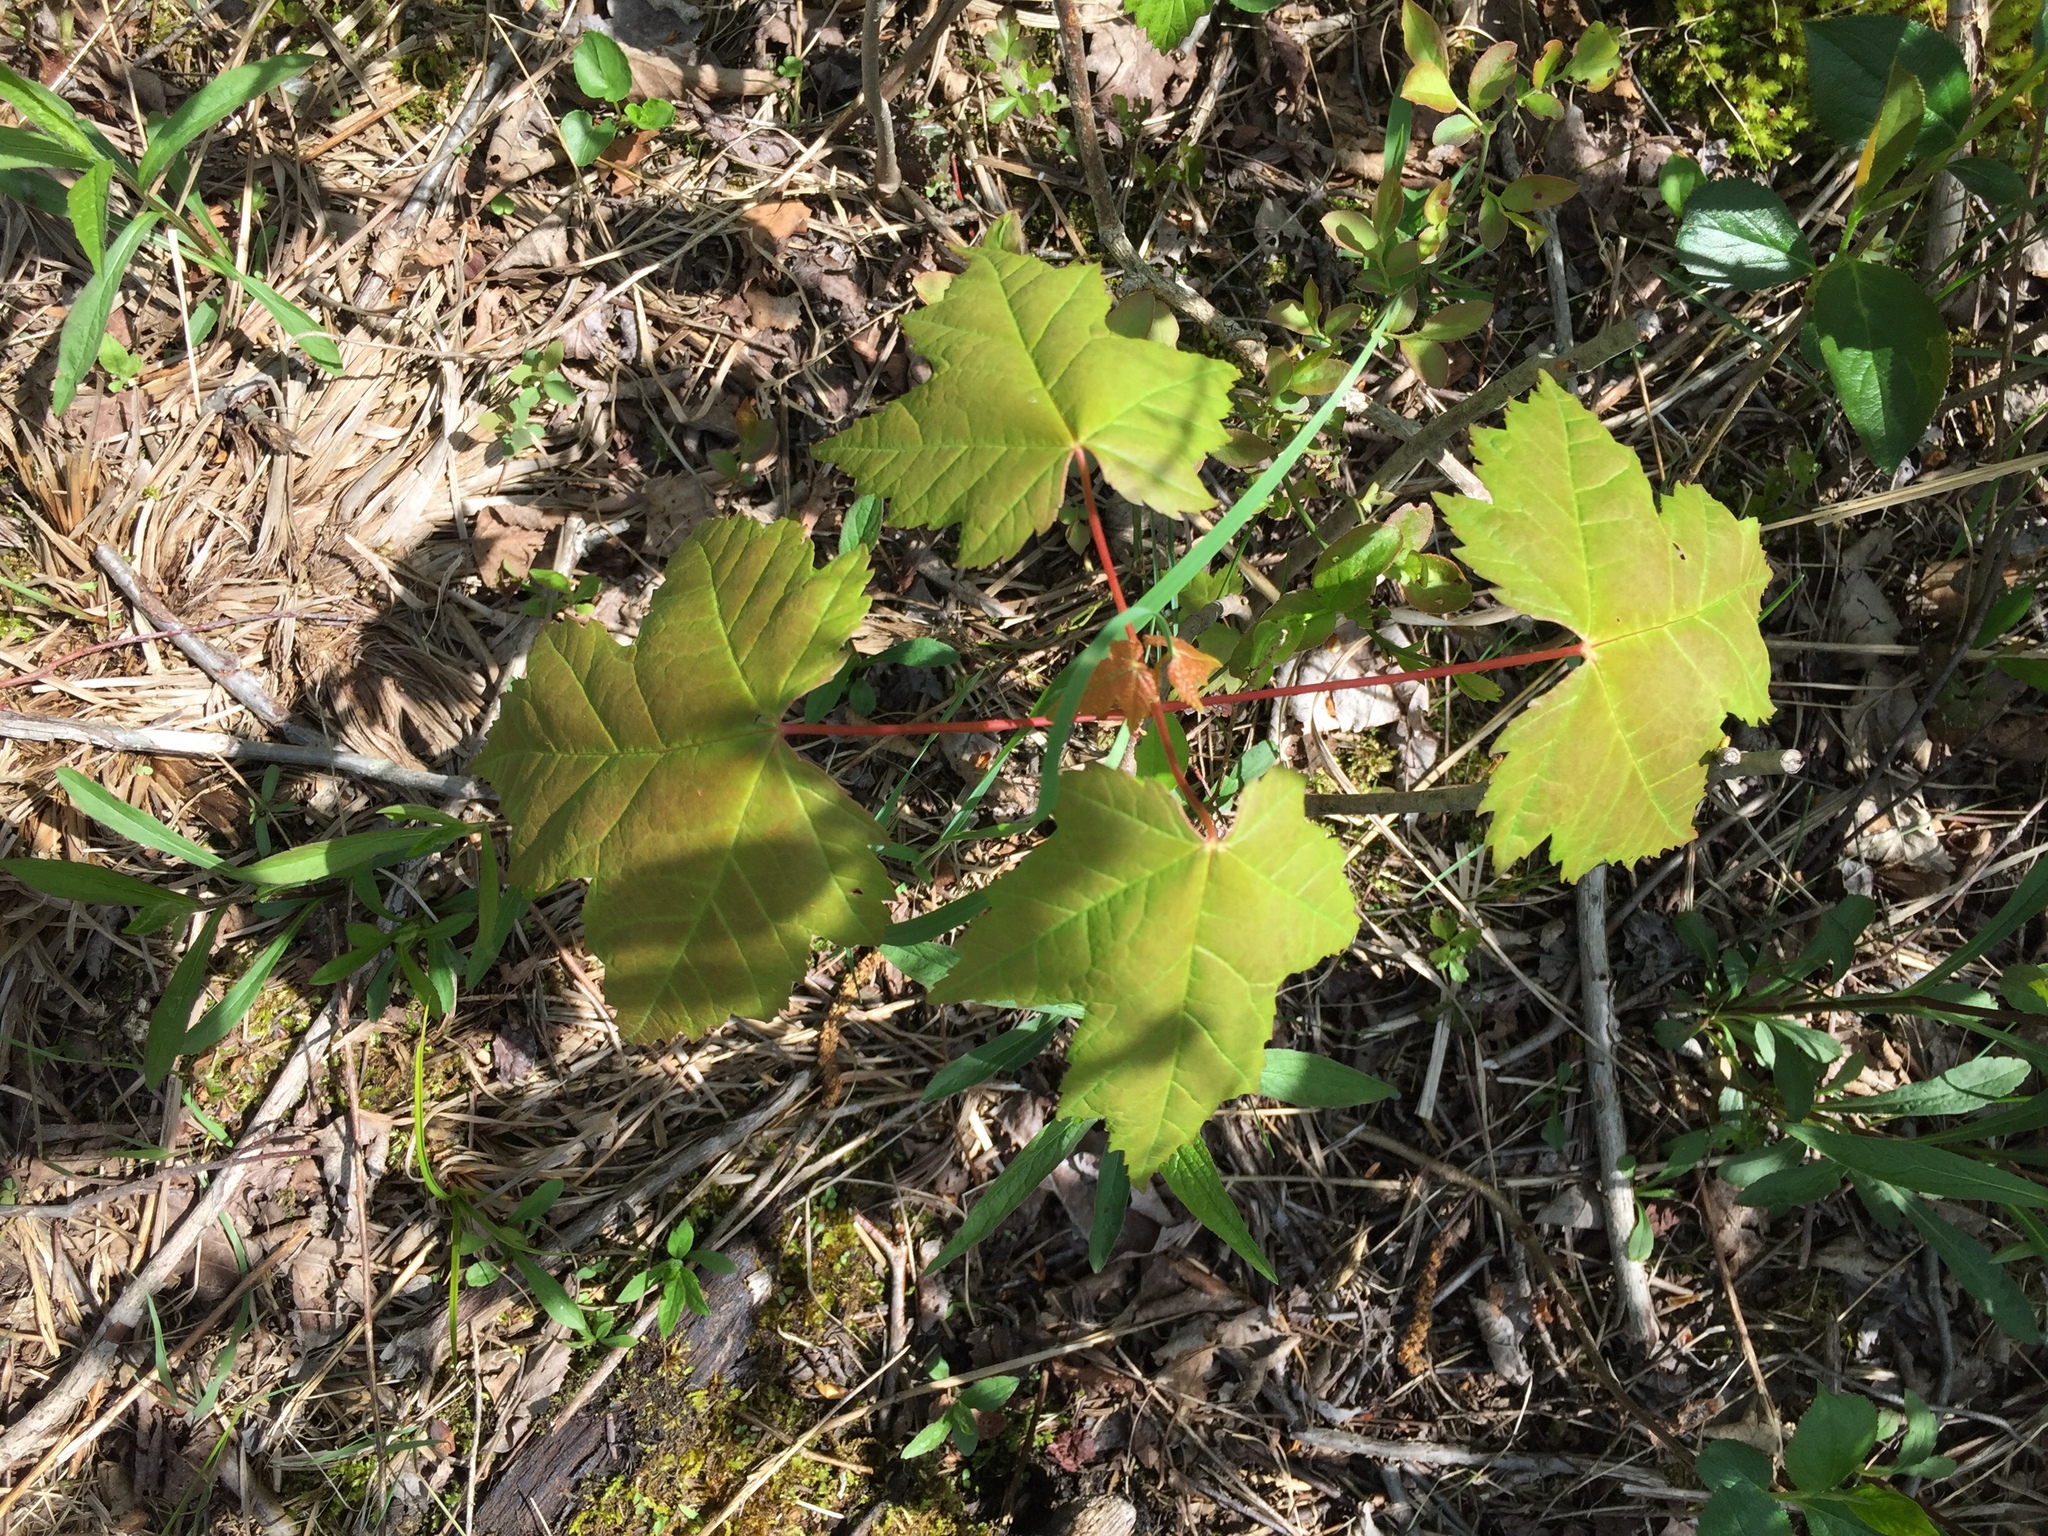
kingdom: Plantae
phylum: Tracheophyta
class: Magnoliopsida
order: Sapindales
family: Sapindaceae
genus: Acer
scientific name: Acer rubrum
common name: Red maple
